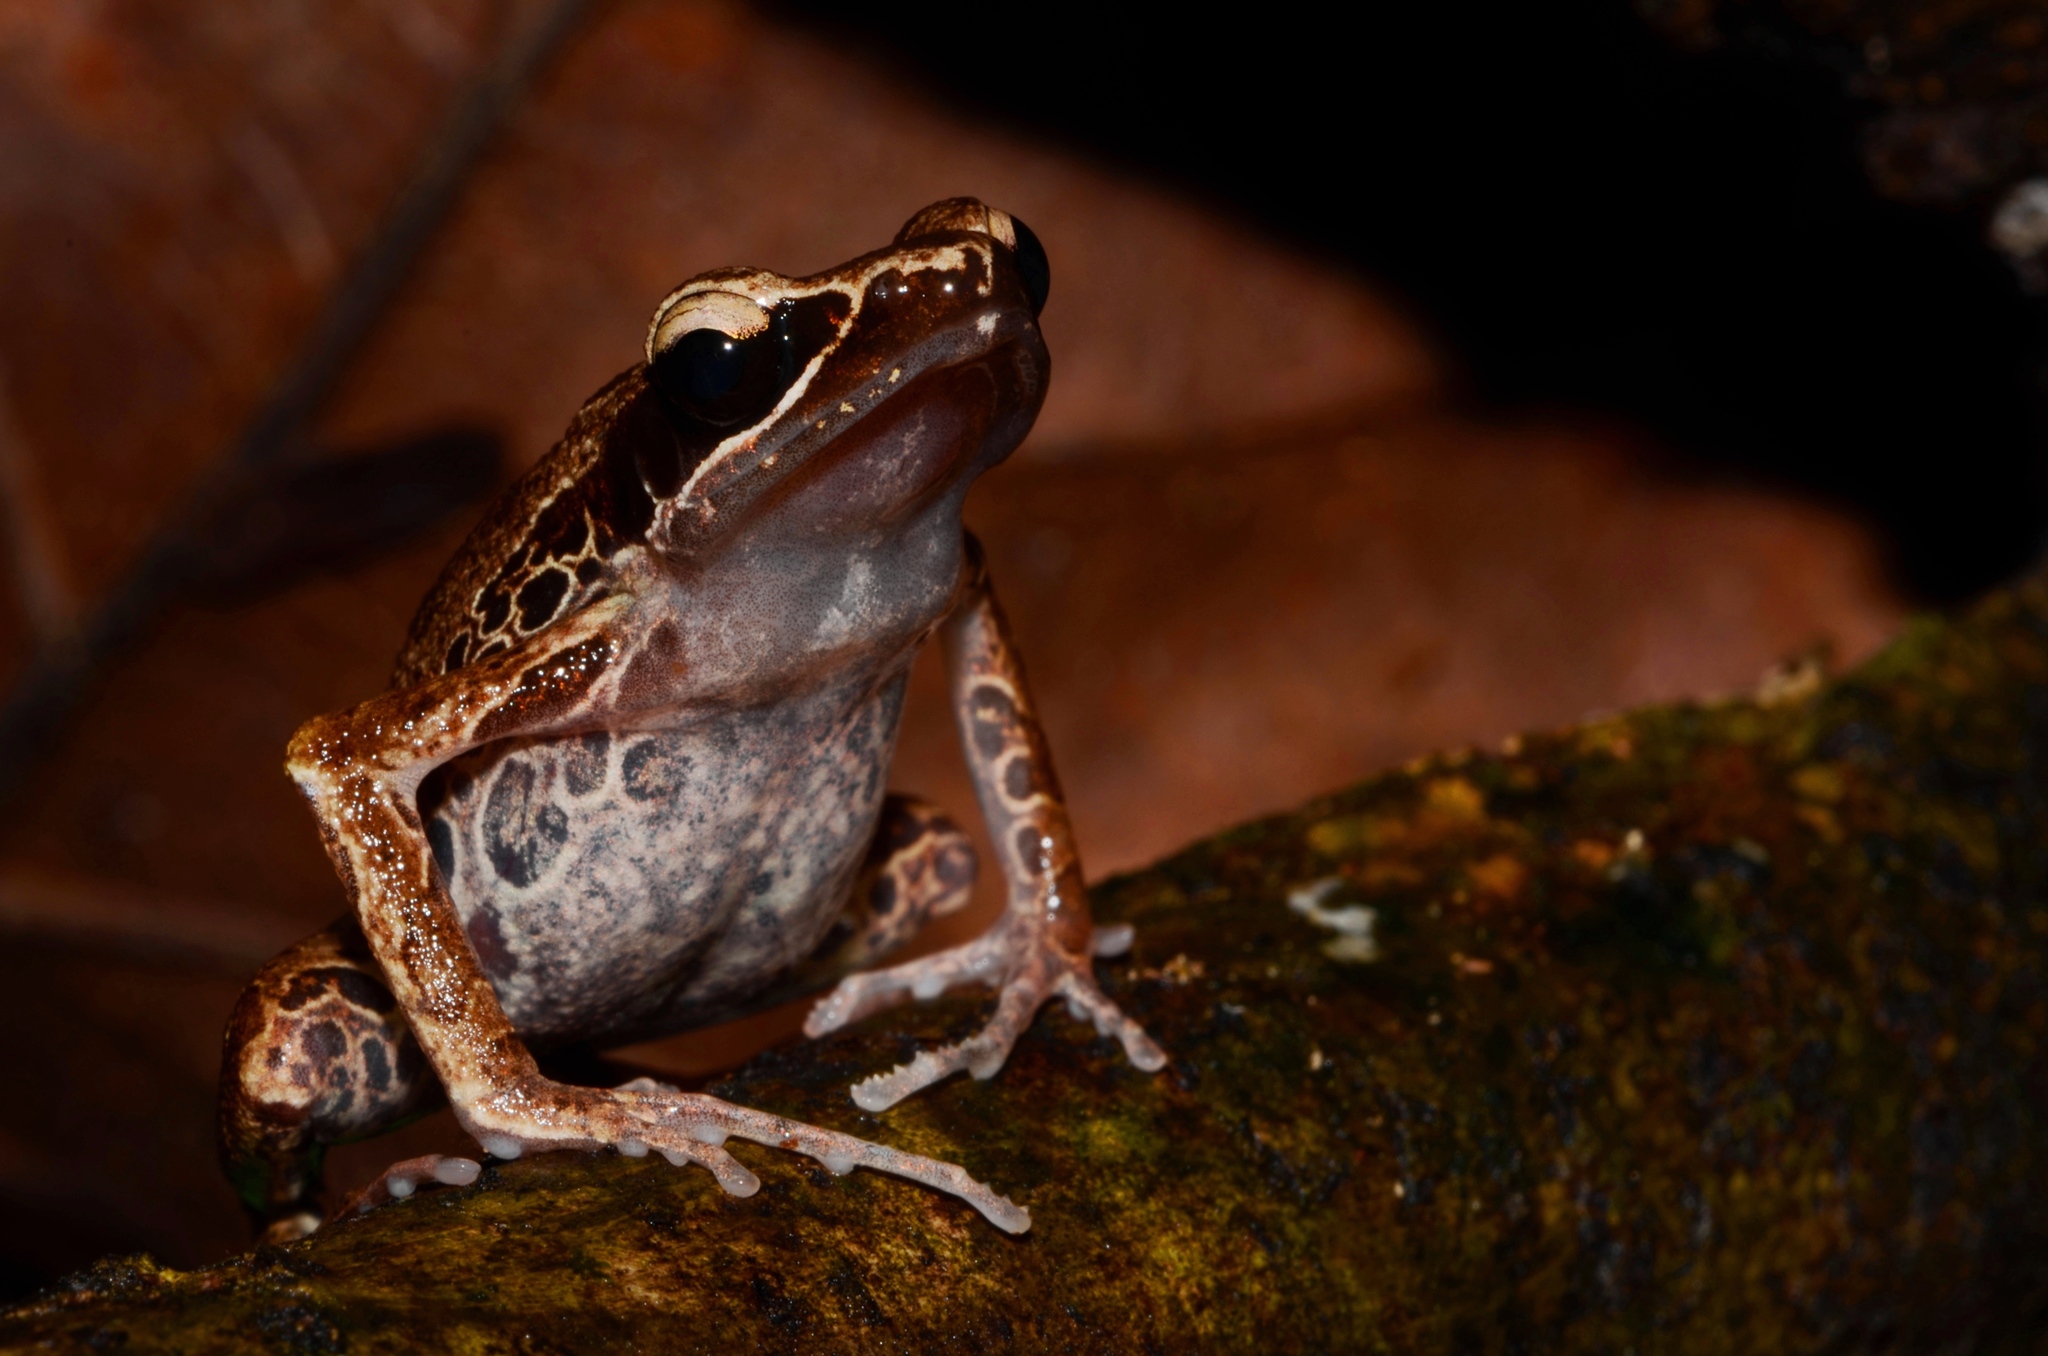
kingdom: Animalia
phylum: Chordata
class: Amphibia
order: Anura
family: Arthroleptidae
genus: Cardioglossa
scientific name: Cardioglossa leucomystax
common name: Silver long-fingered frog
